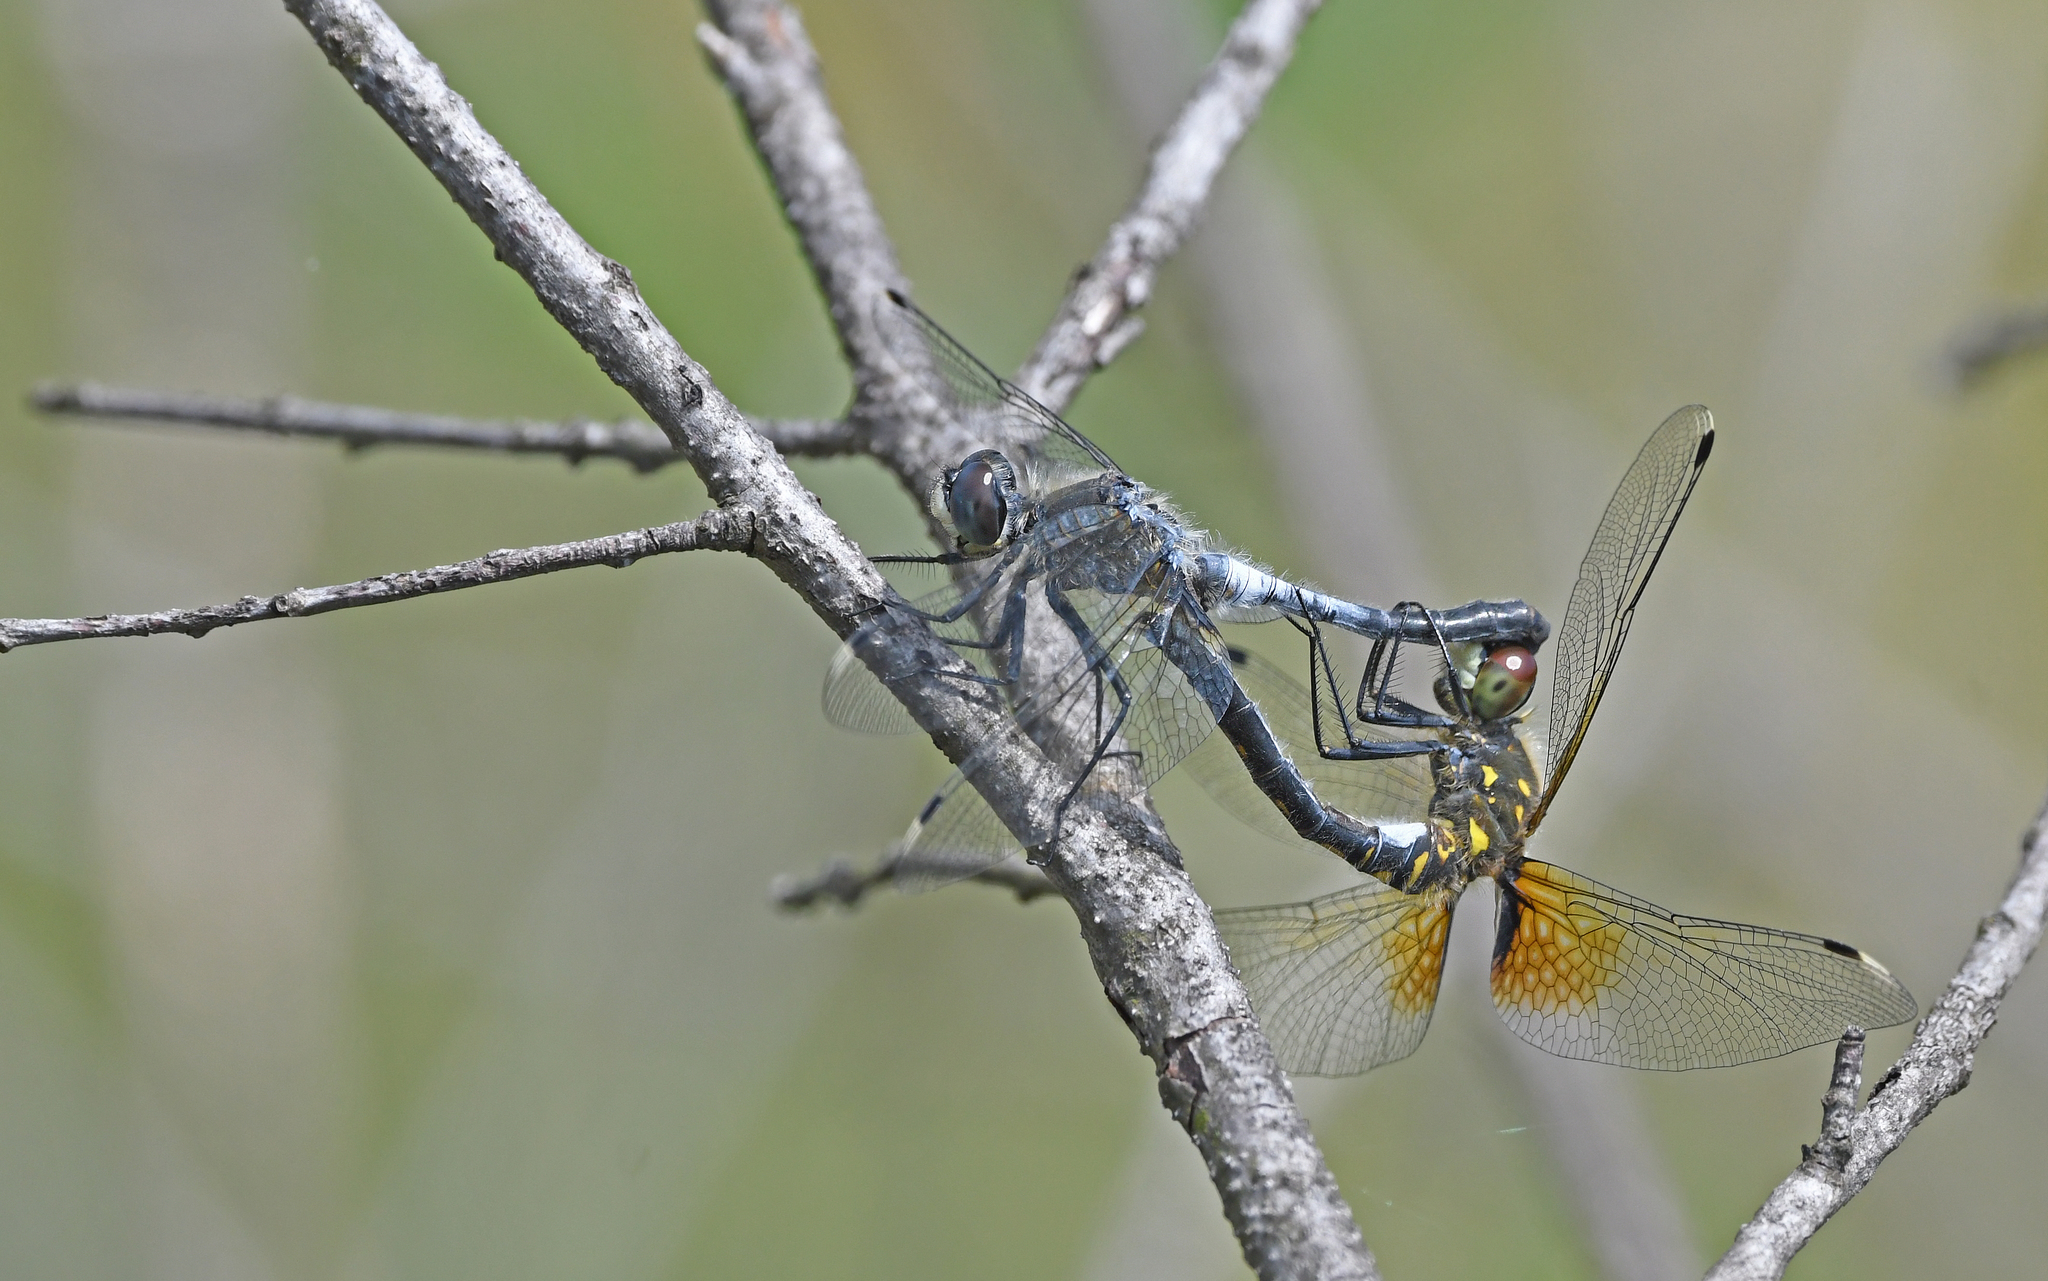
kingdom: Animalia
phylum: Arthropoda
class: Insecta
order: Odonata
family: Libellulidae
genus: Leucorrhinia
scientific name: Leucorrhinia albifrons
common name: Dark whiteface
